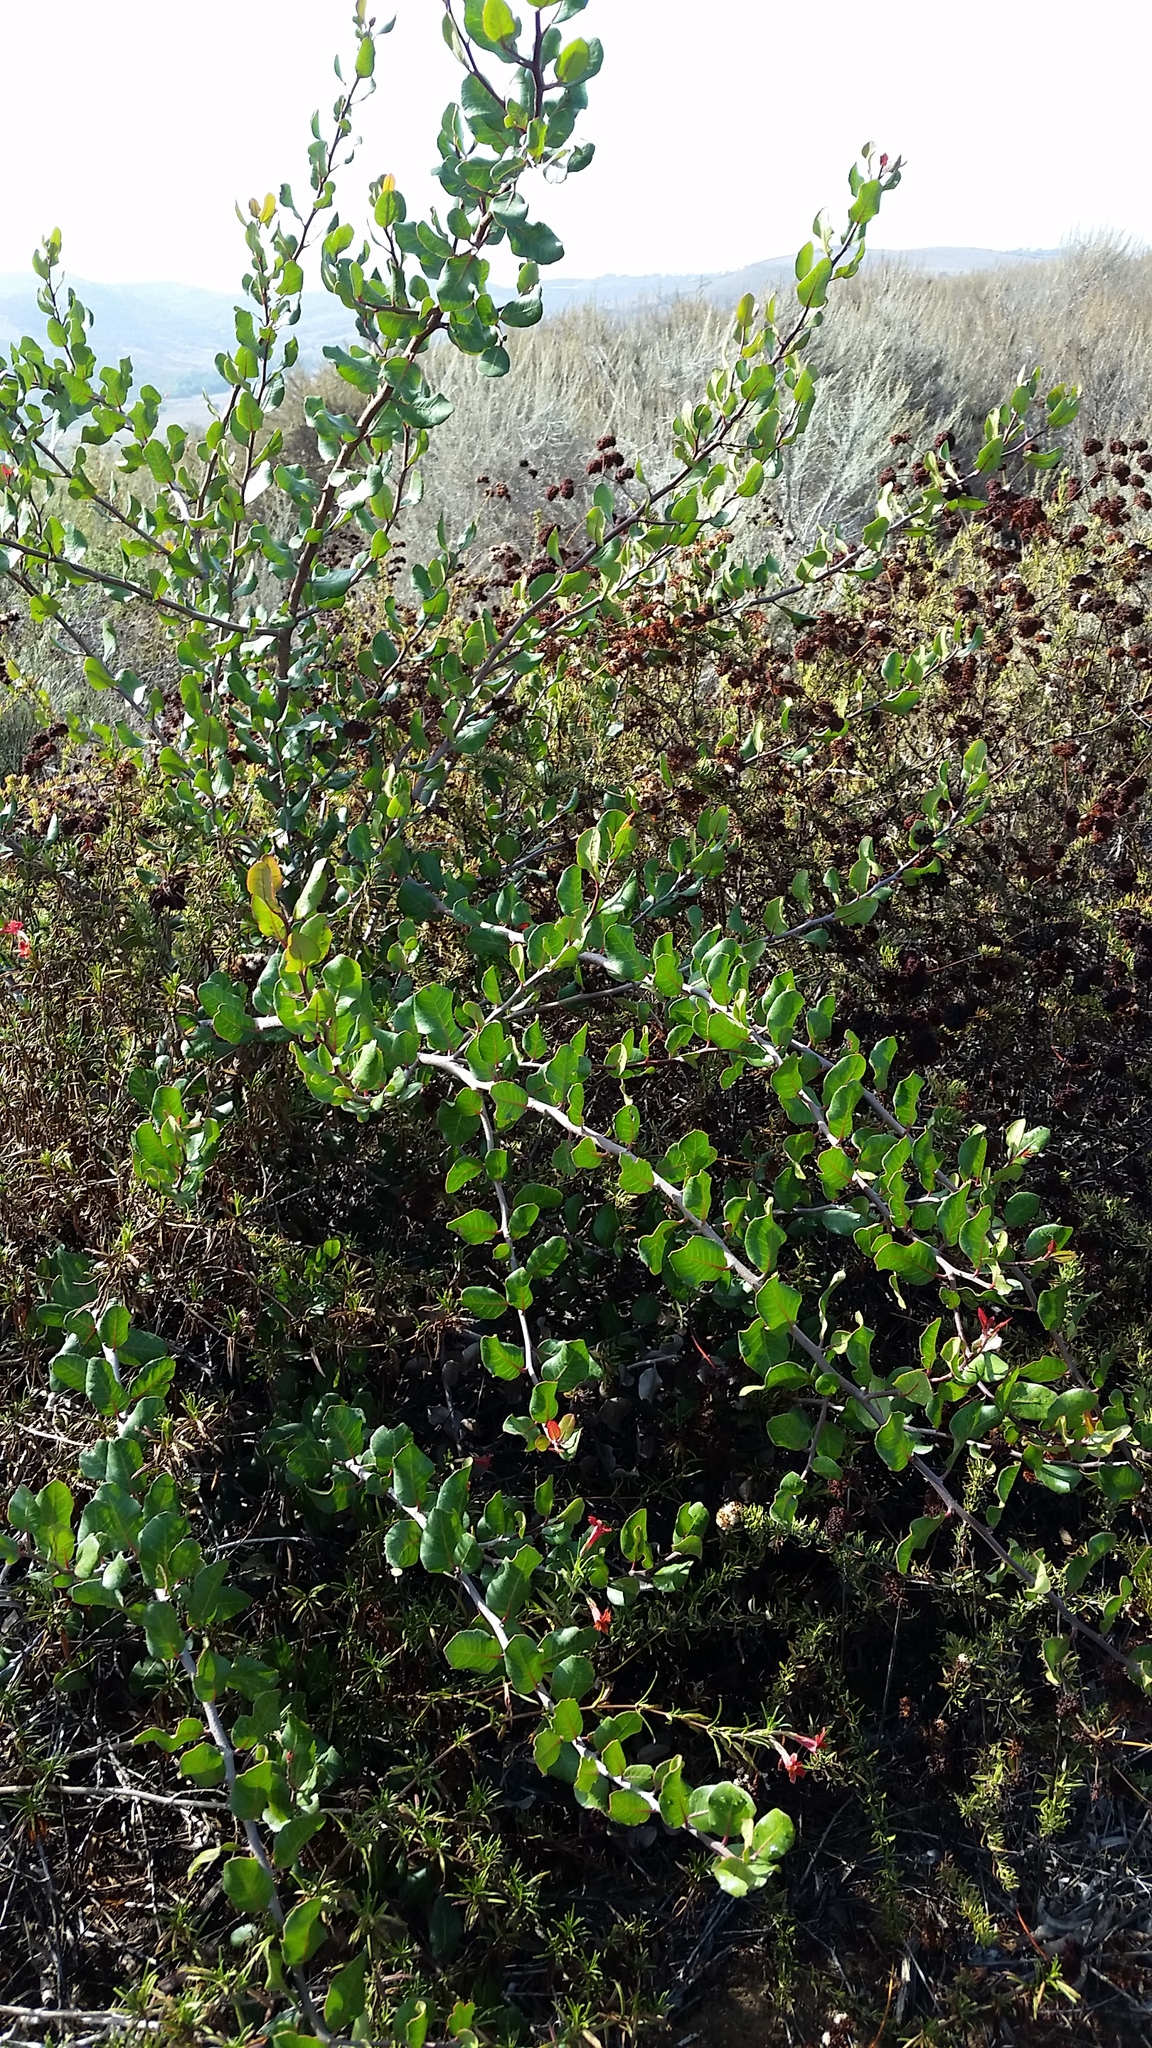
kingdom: Plantae
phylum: Tracheophyta
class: Magnoliopsida
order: Sapindales
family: Anacardiaceae
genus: Rhus
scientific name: Rhus integrifolia
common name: Lemonade sumac
